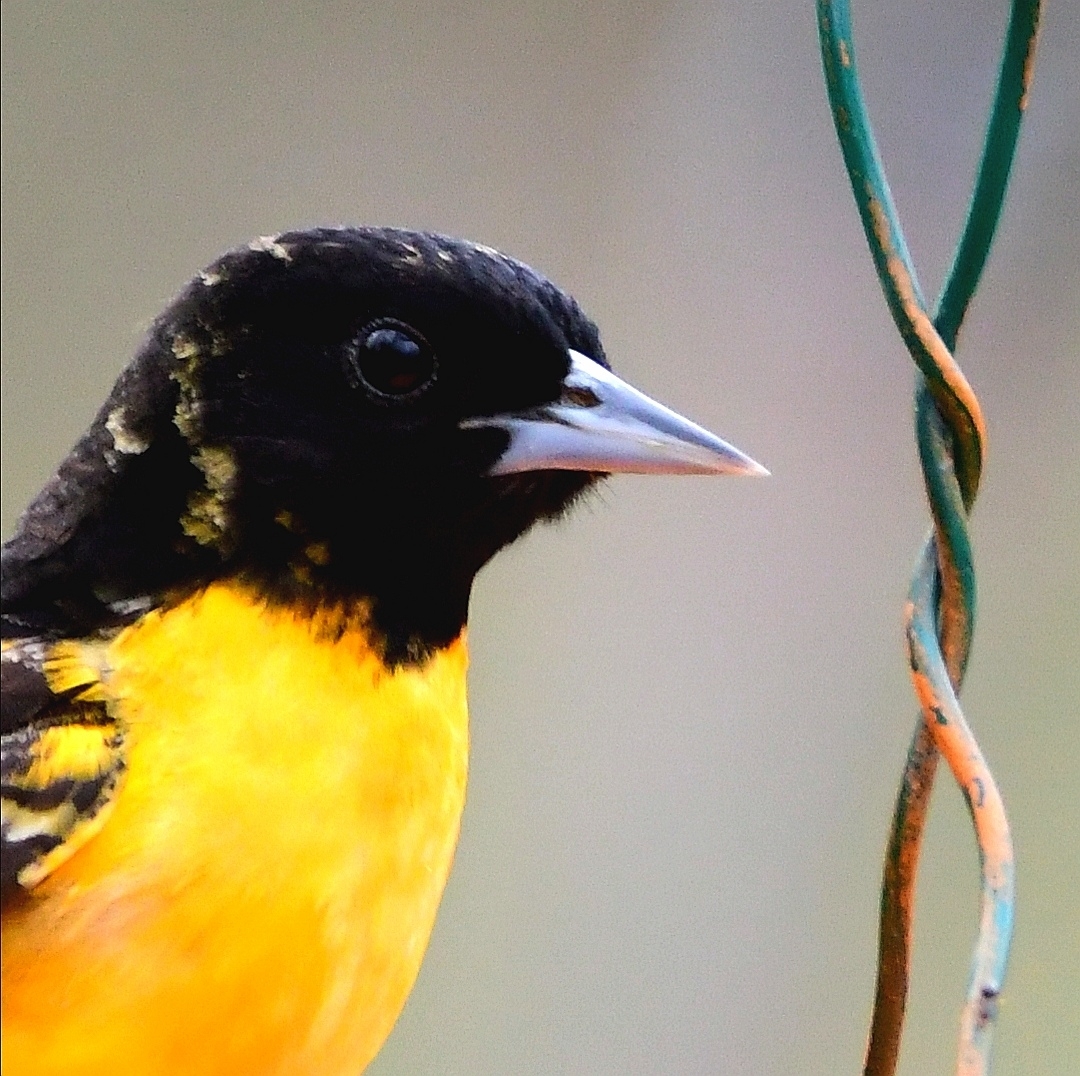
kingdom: Animalia
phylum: Chordata
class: Aves
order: Passeriformes
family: Icteridae
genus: Icterus
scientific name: Icterus galbula
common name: Baltimore oriole
